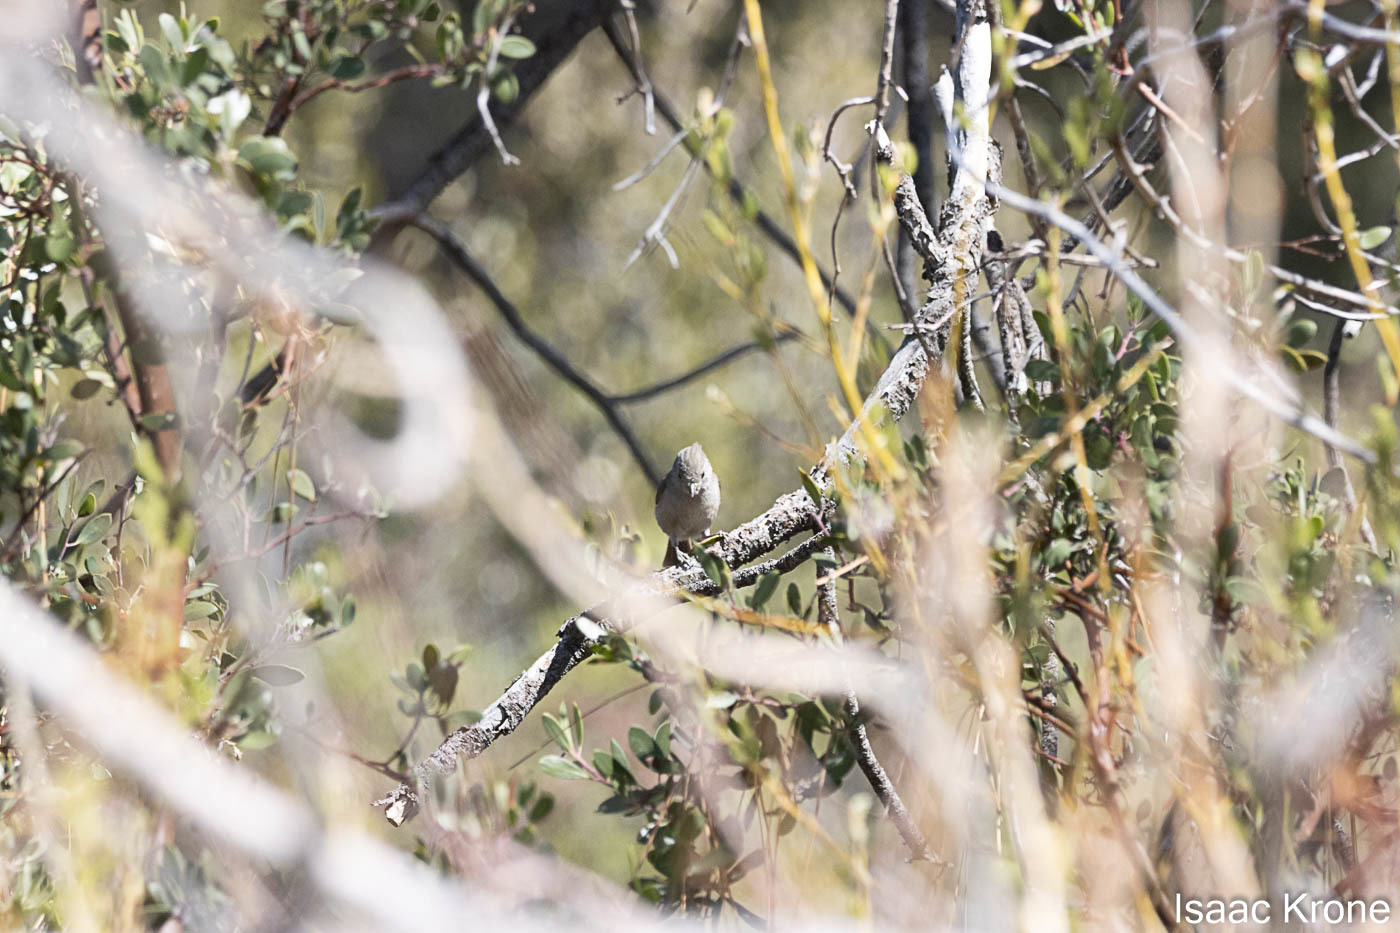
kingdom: Animalia
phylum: Chordata
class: Aves
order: Passeriformes
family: Paridae
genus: Baeolophus
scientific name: Baeolophus inornatus
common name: Oak titmouse
